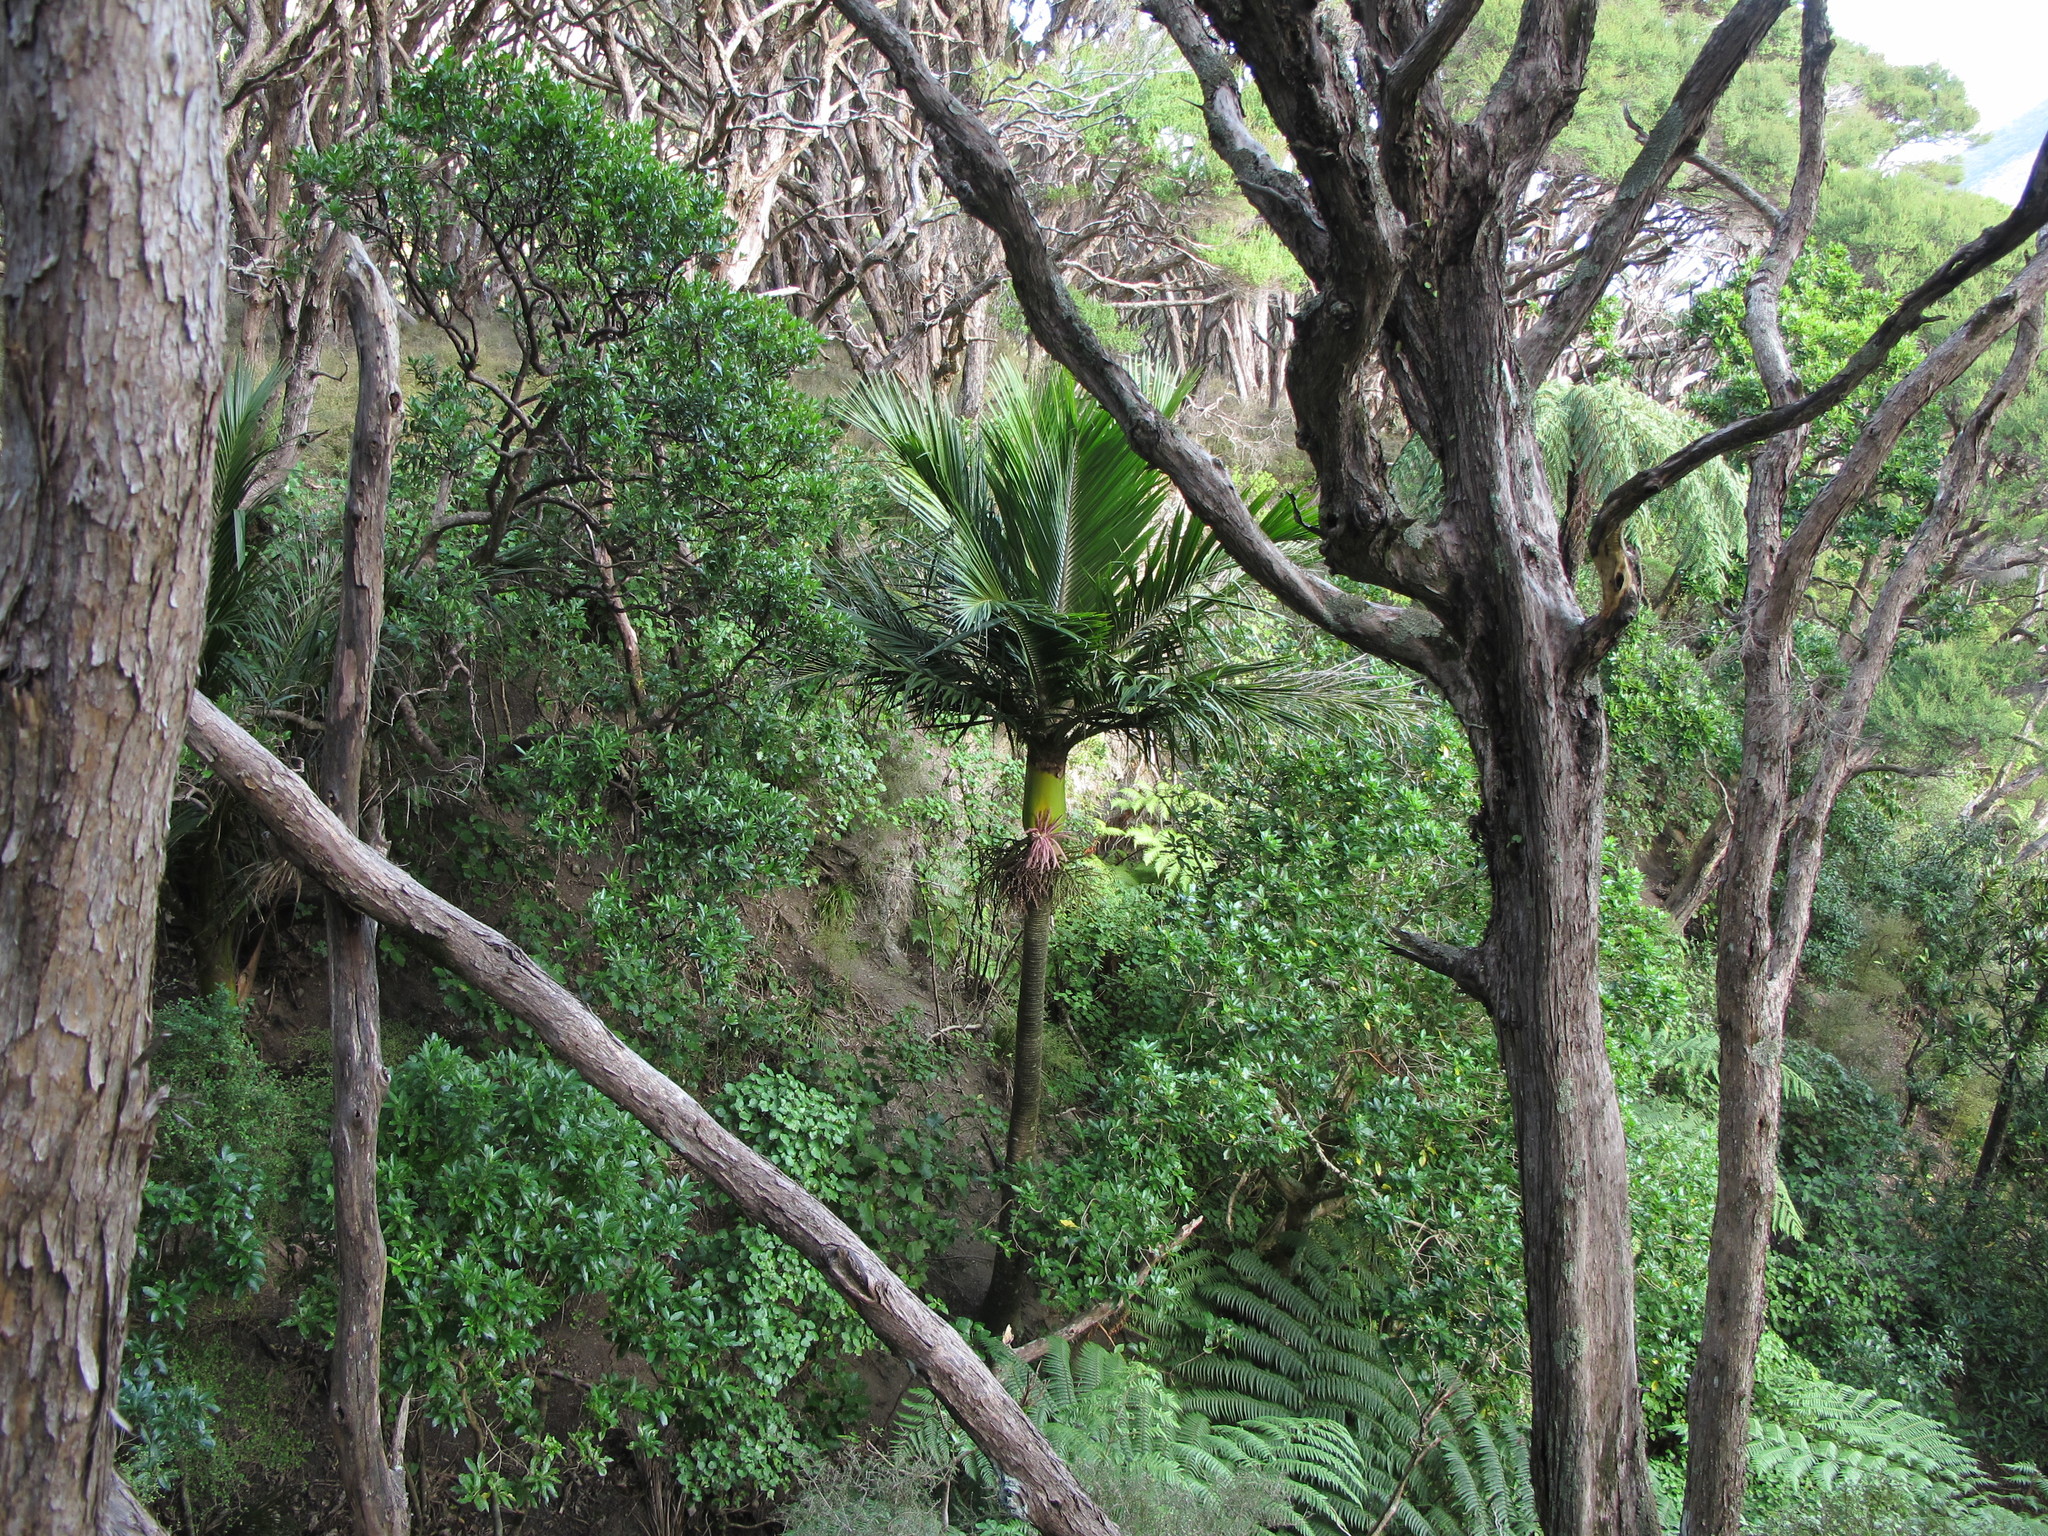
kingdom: Plantae
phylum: Tracheophyta
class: Liliopsida
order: Arecales
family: Arecaceae
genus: Rhopalostylis
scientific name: Rhopalostylis sapida
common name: Feather-duster palm
